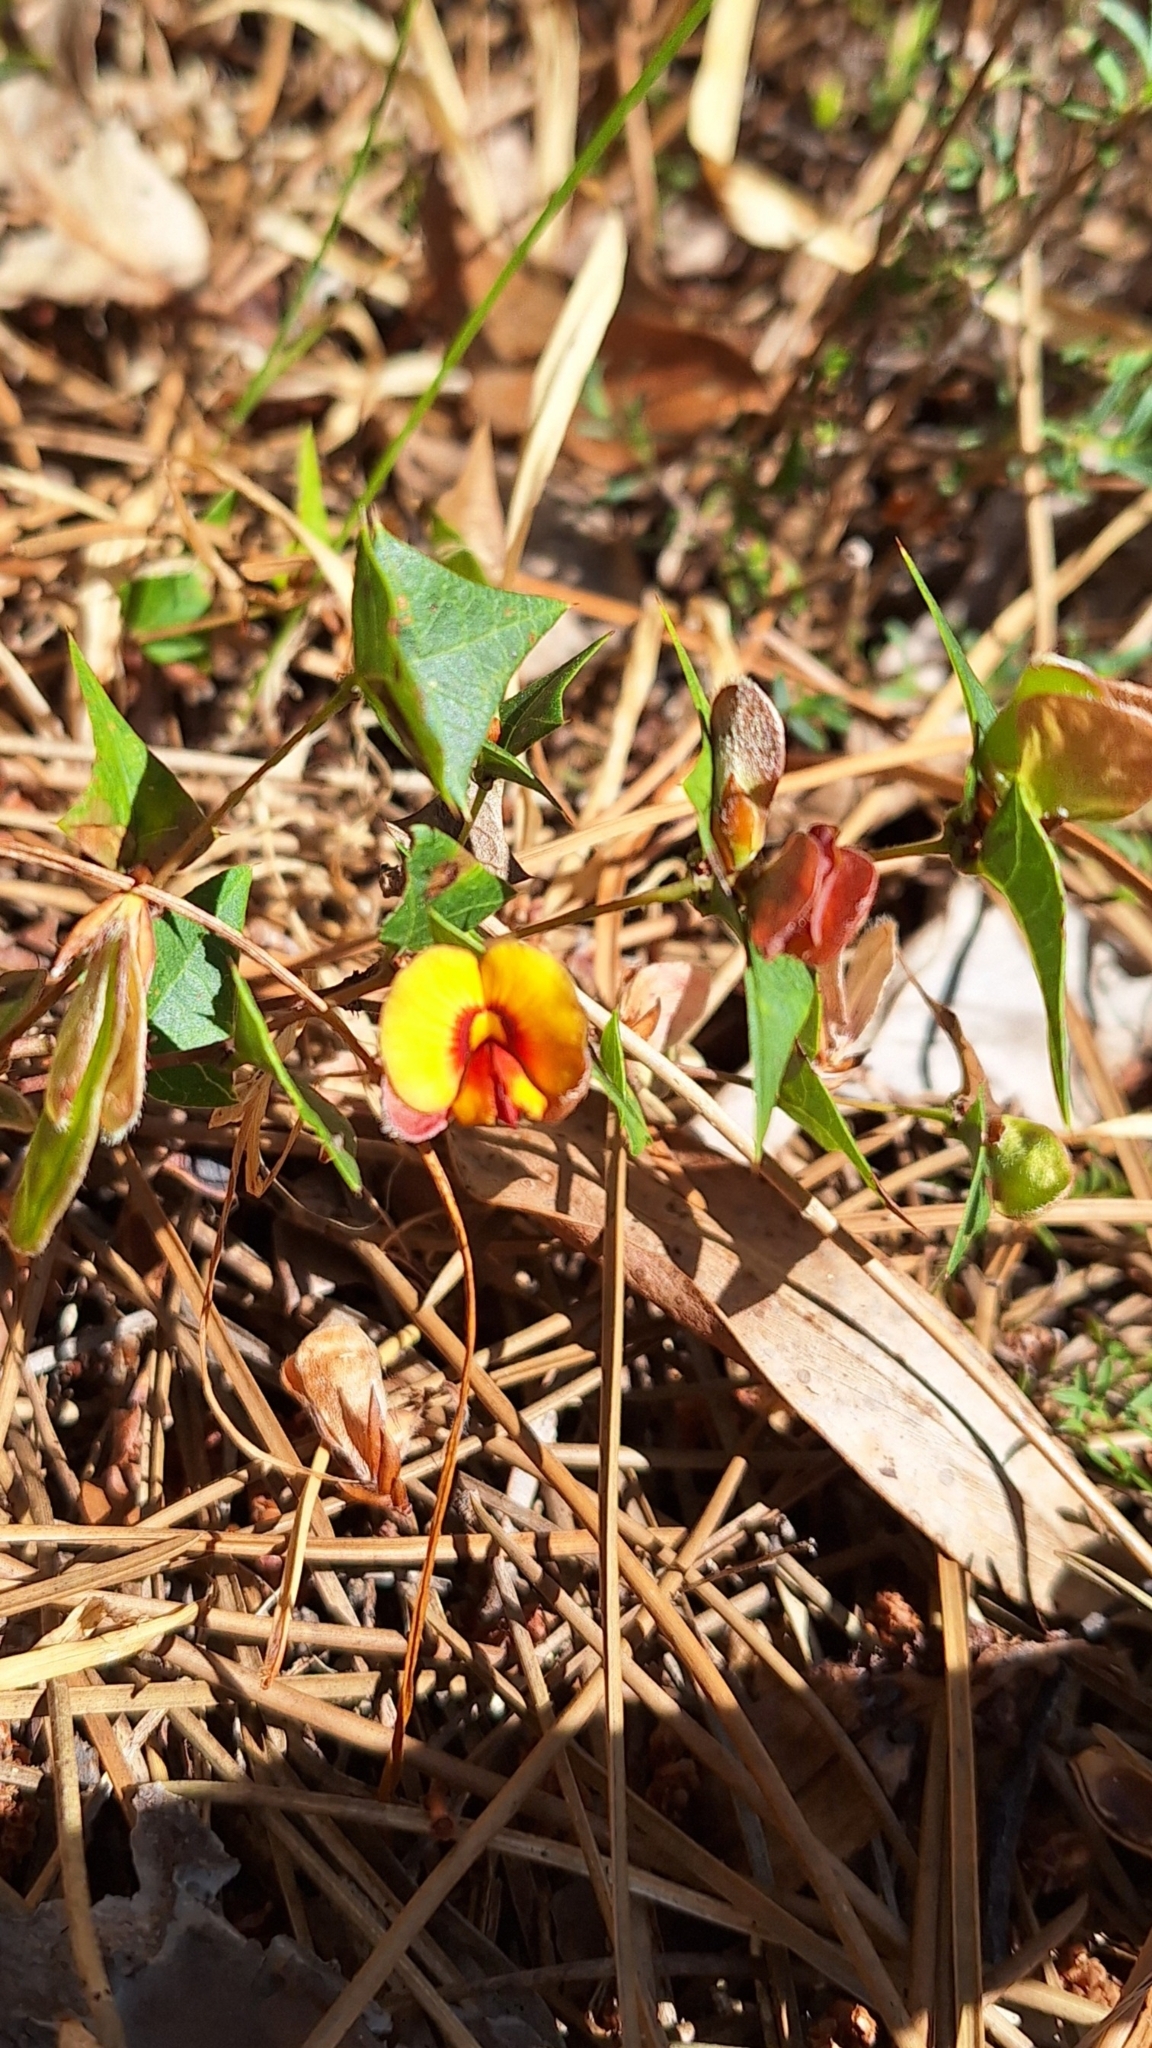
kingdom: Plantae
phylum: Tracheophyta
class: Magnoliopsida
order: Fabales
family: Fabaceae
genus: Platylobium
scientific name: Platylobium obtusangulum
